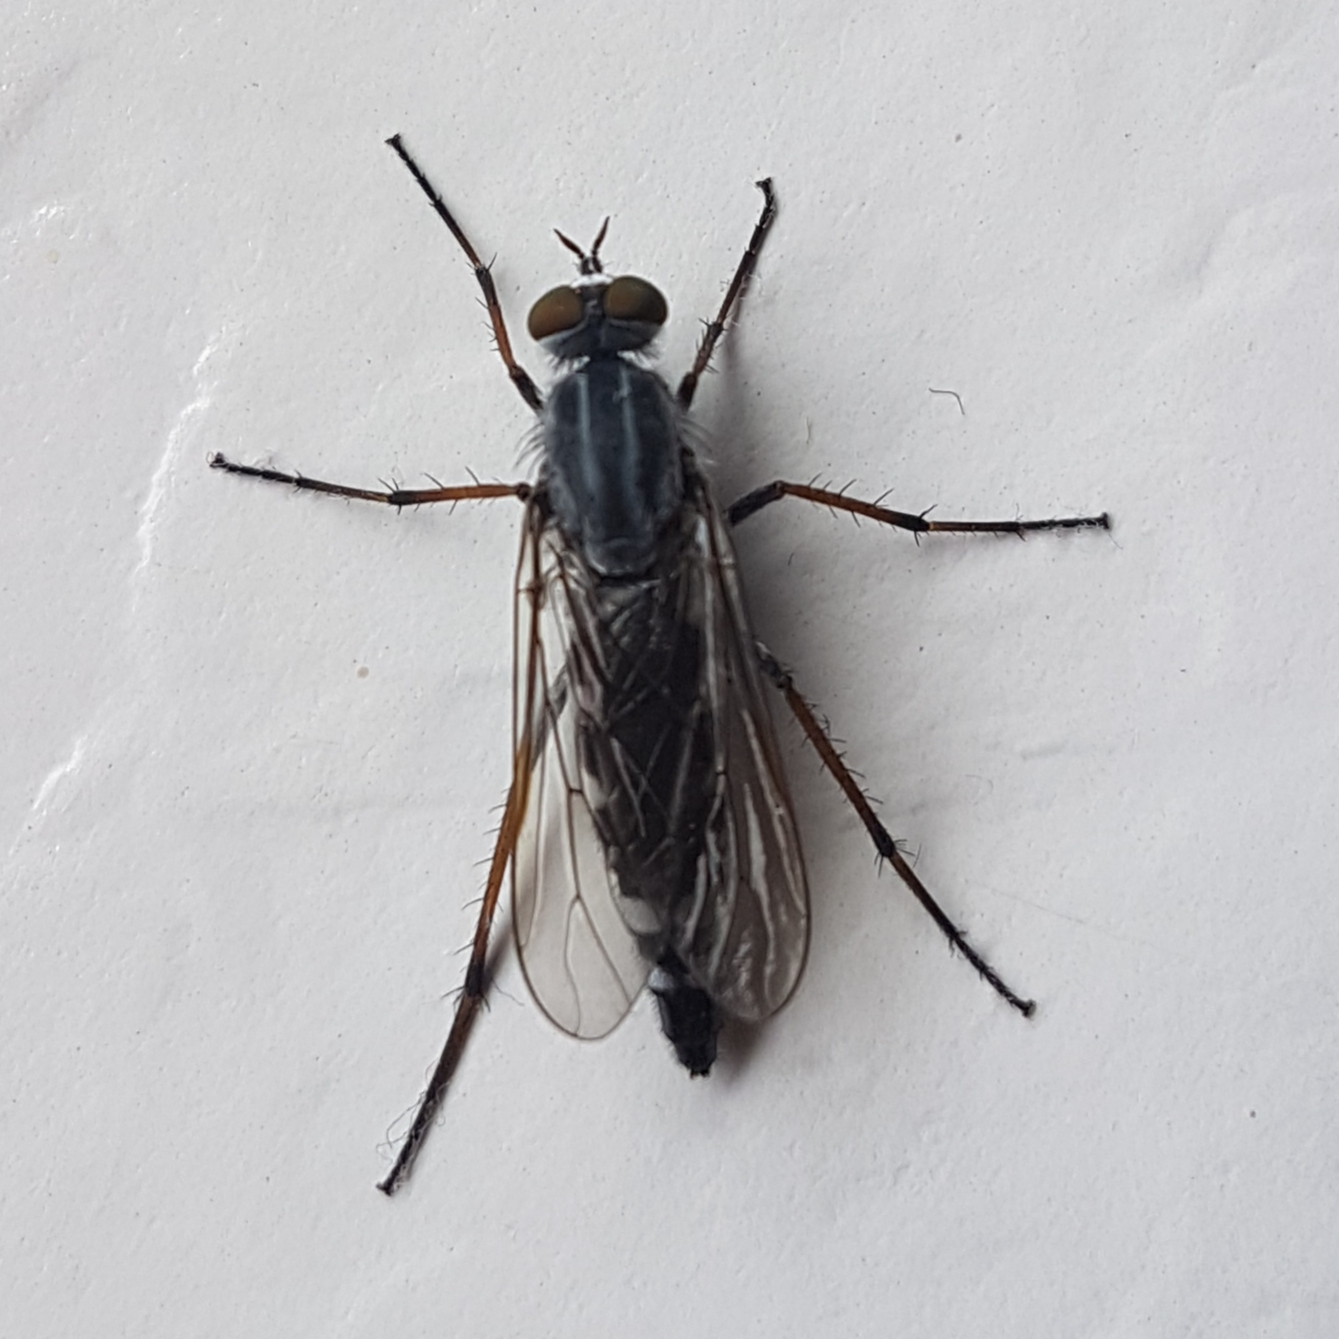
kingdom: Animalia
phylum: Arthropoda
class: Insecta
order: Diptera
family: Therevidae
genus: Pandivirilia
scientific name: Pandivirilia melaleuca
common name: Forest silver-stiletto
